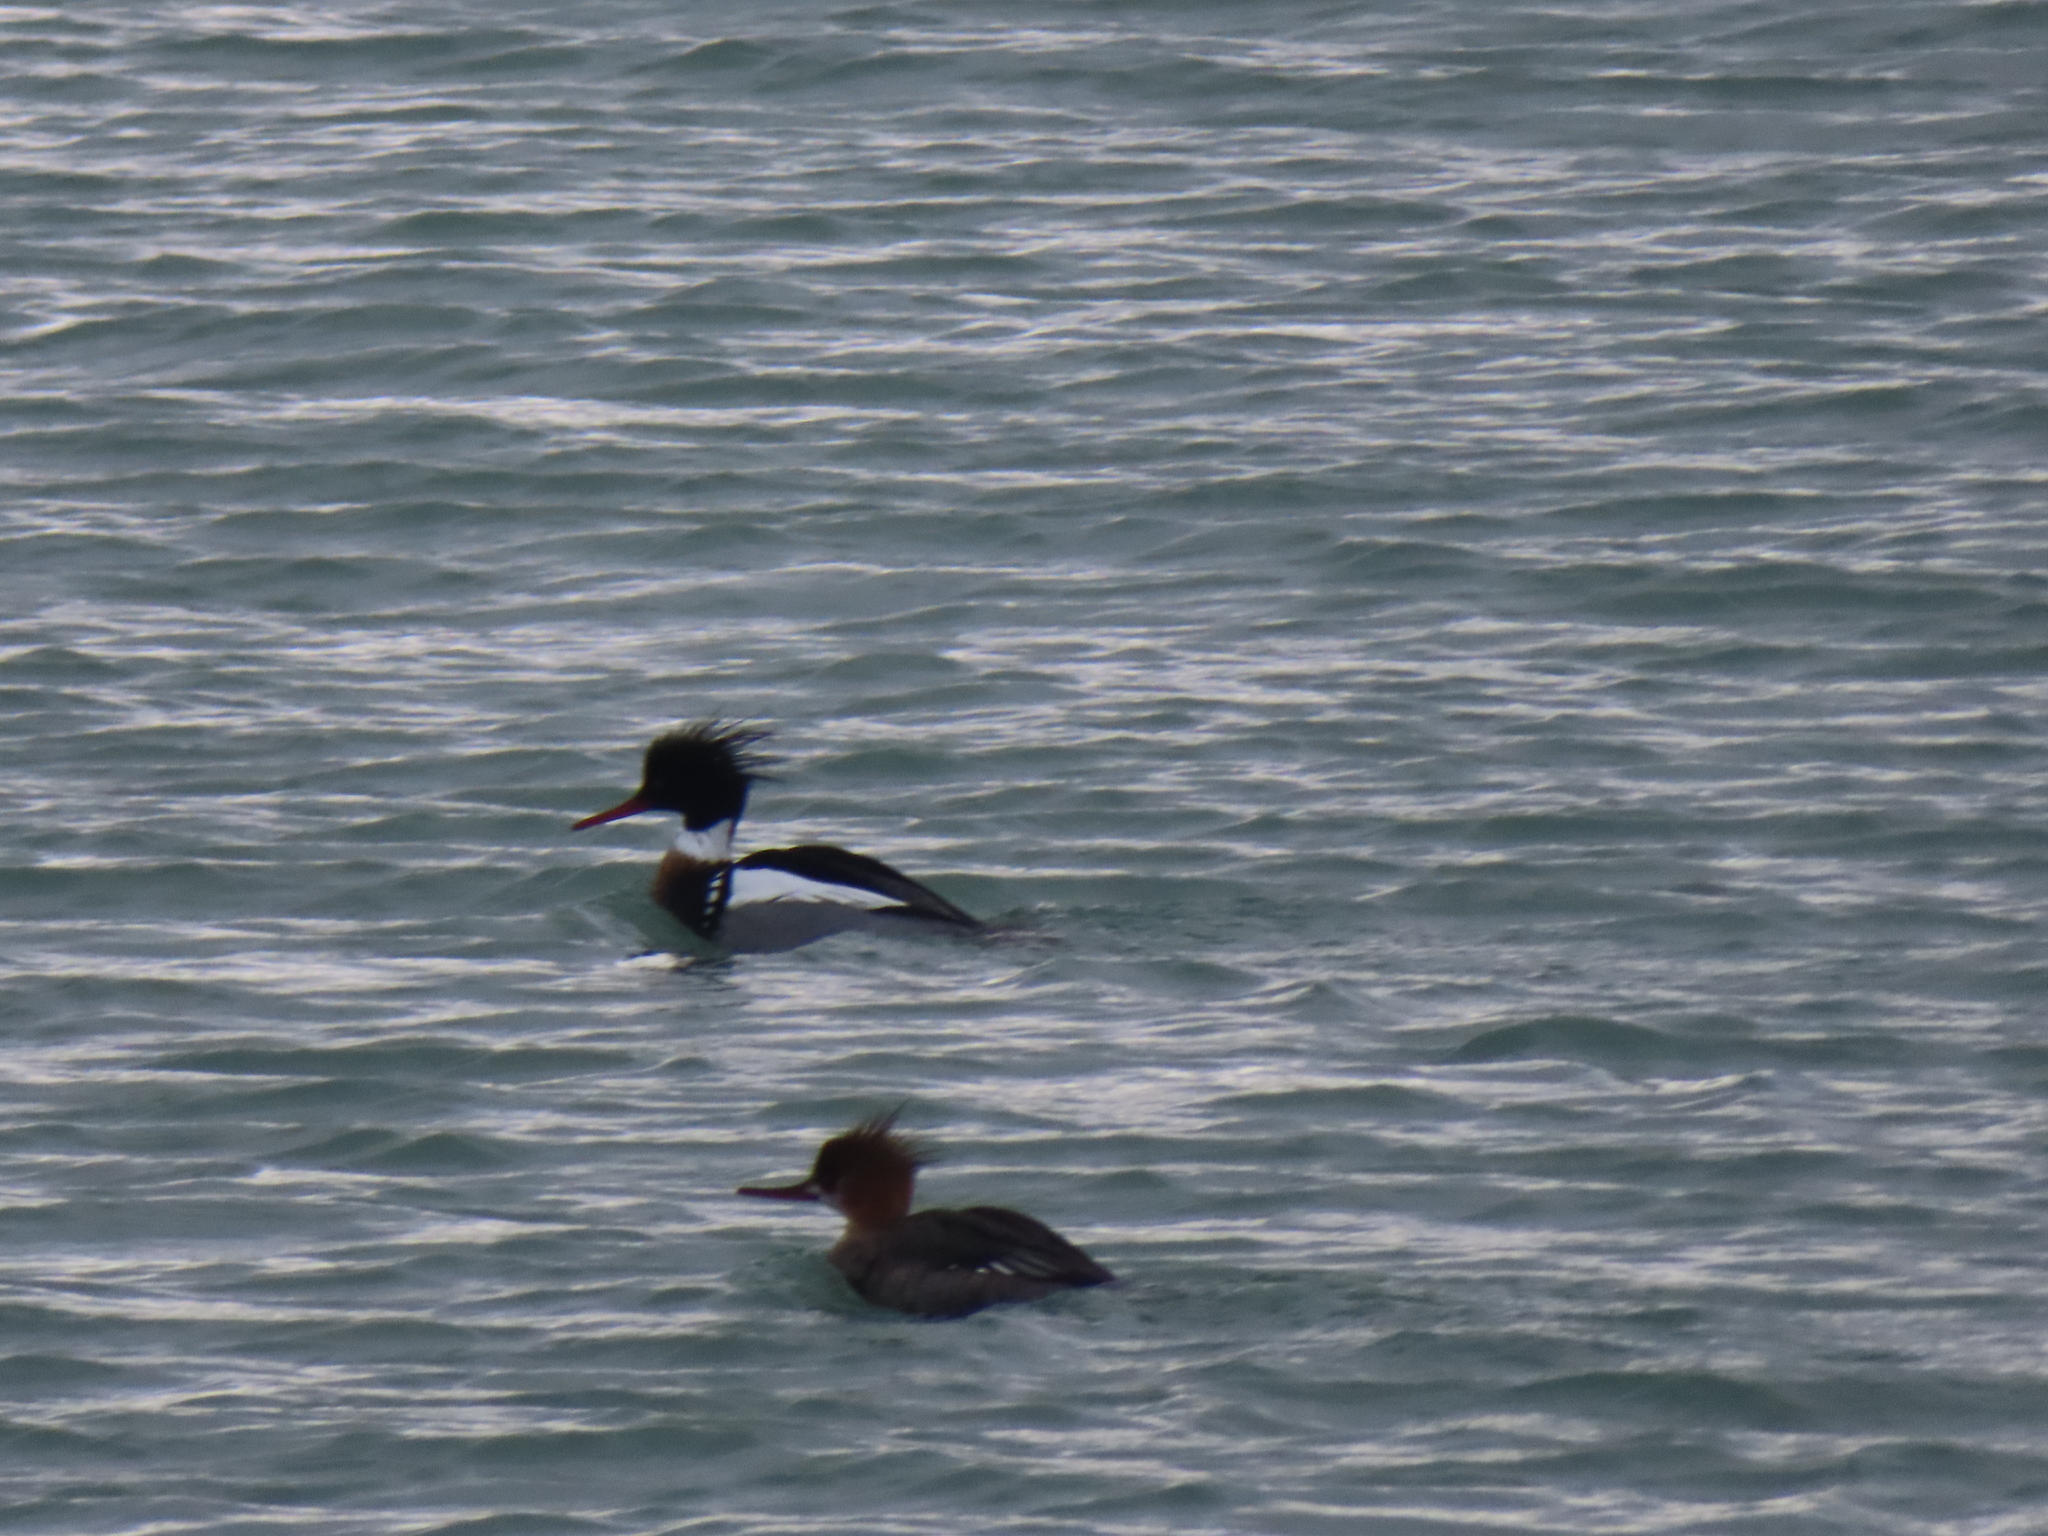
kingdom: Animalia
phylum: Chordata
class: Aves
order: Anseriformes
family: Anatidae
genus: Mergus
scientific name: Mergus serrator
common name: Red-breasted merganser
